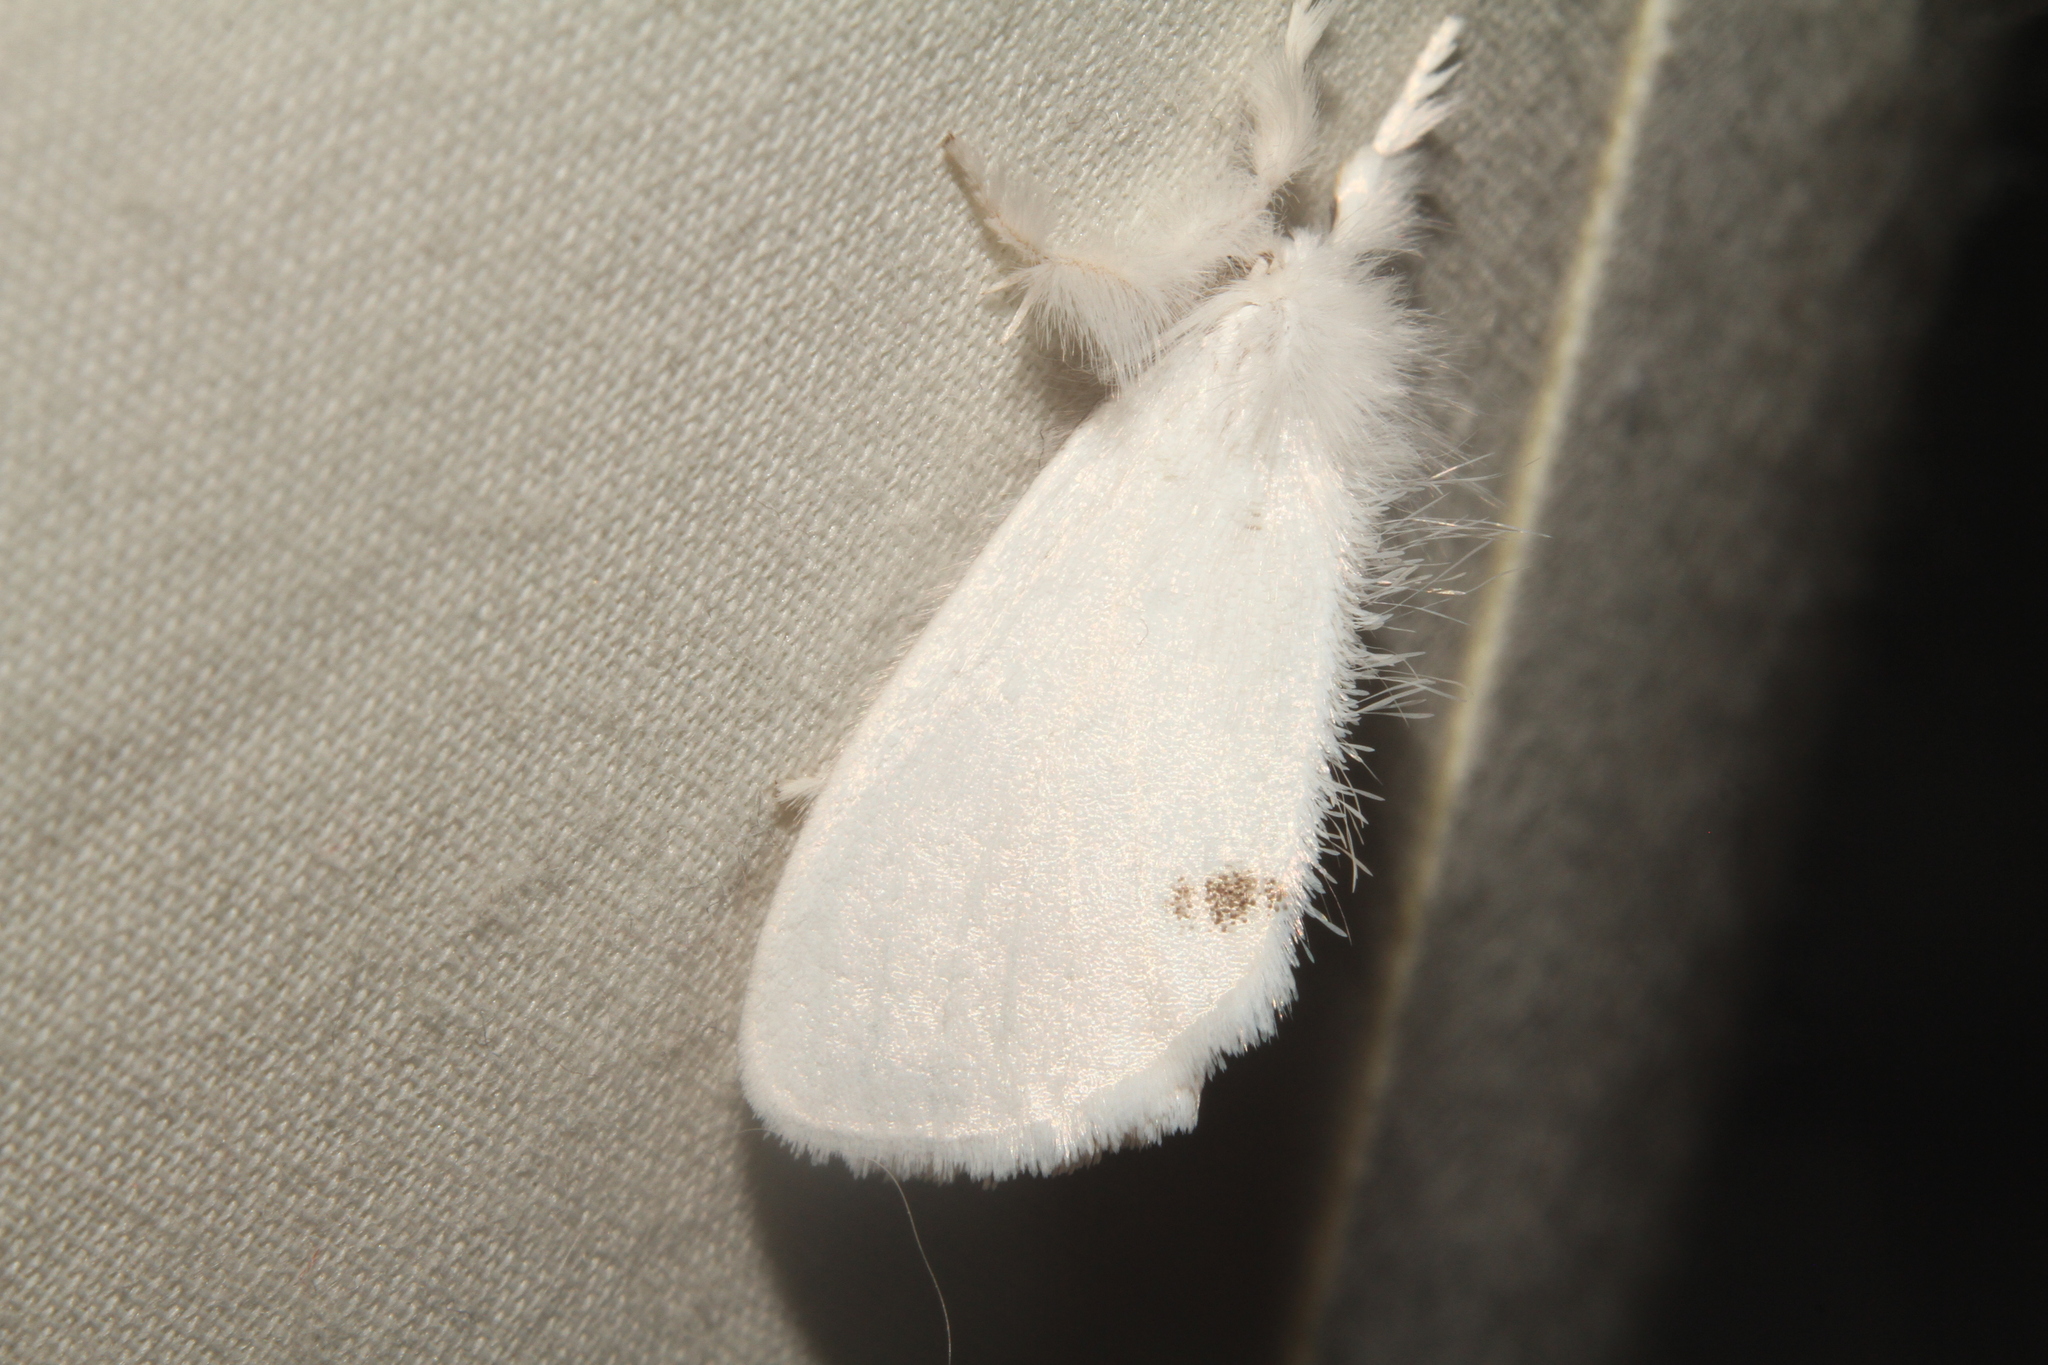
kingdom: Animalia
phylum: Arthropoda
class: Insecta
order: Lepidoptera
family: Erebidae
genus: Sphrageidus
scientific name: Sphrageidus similis
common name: Yellow-tail
